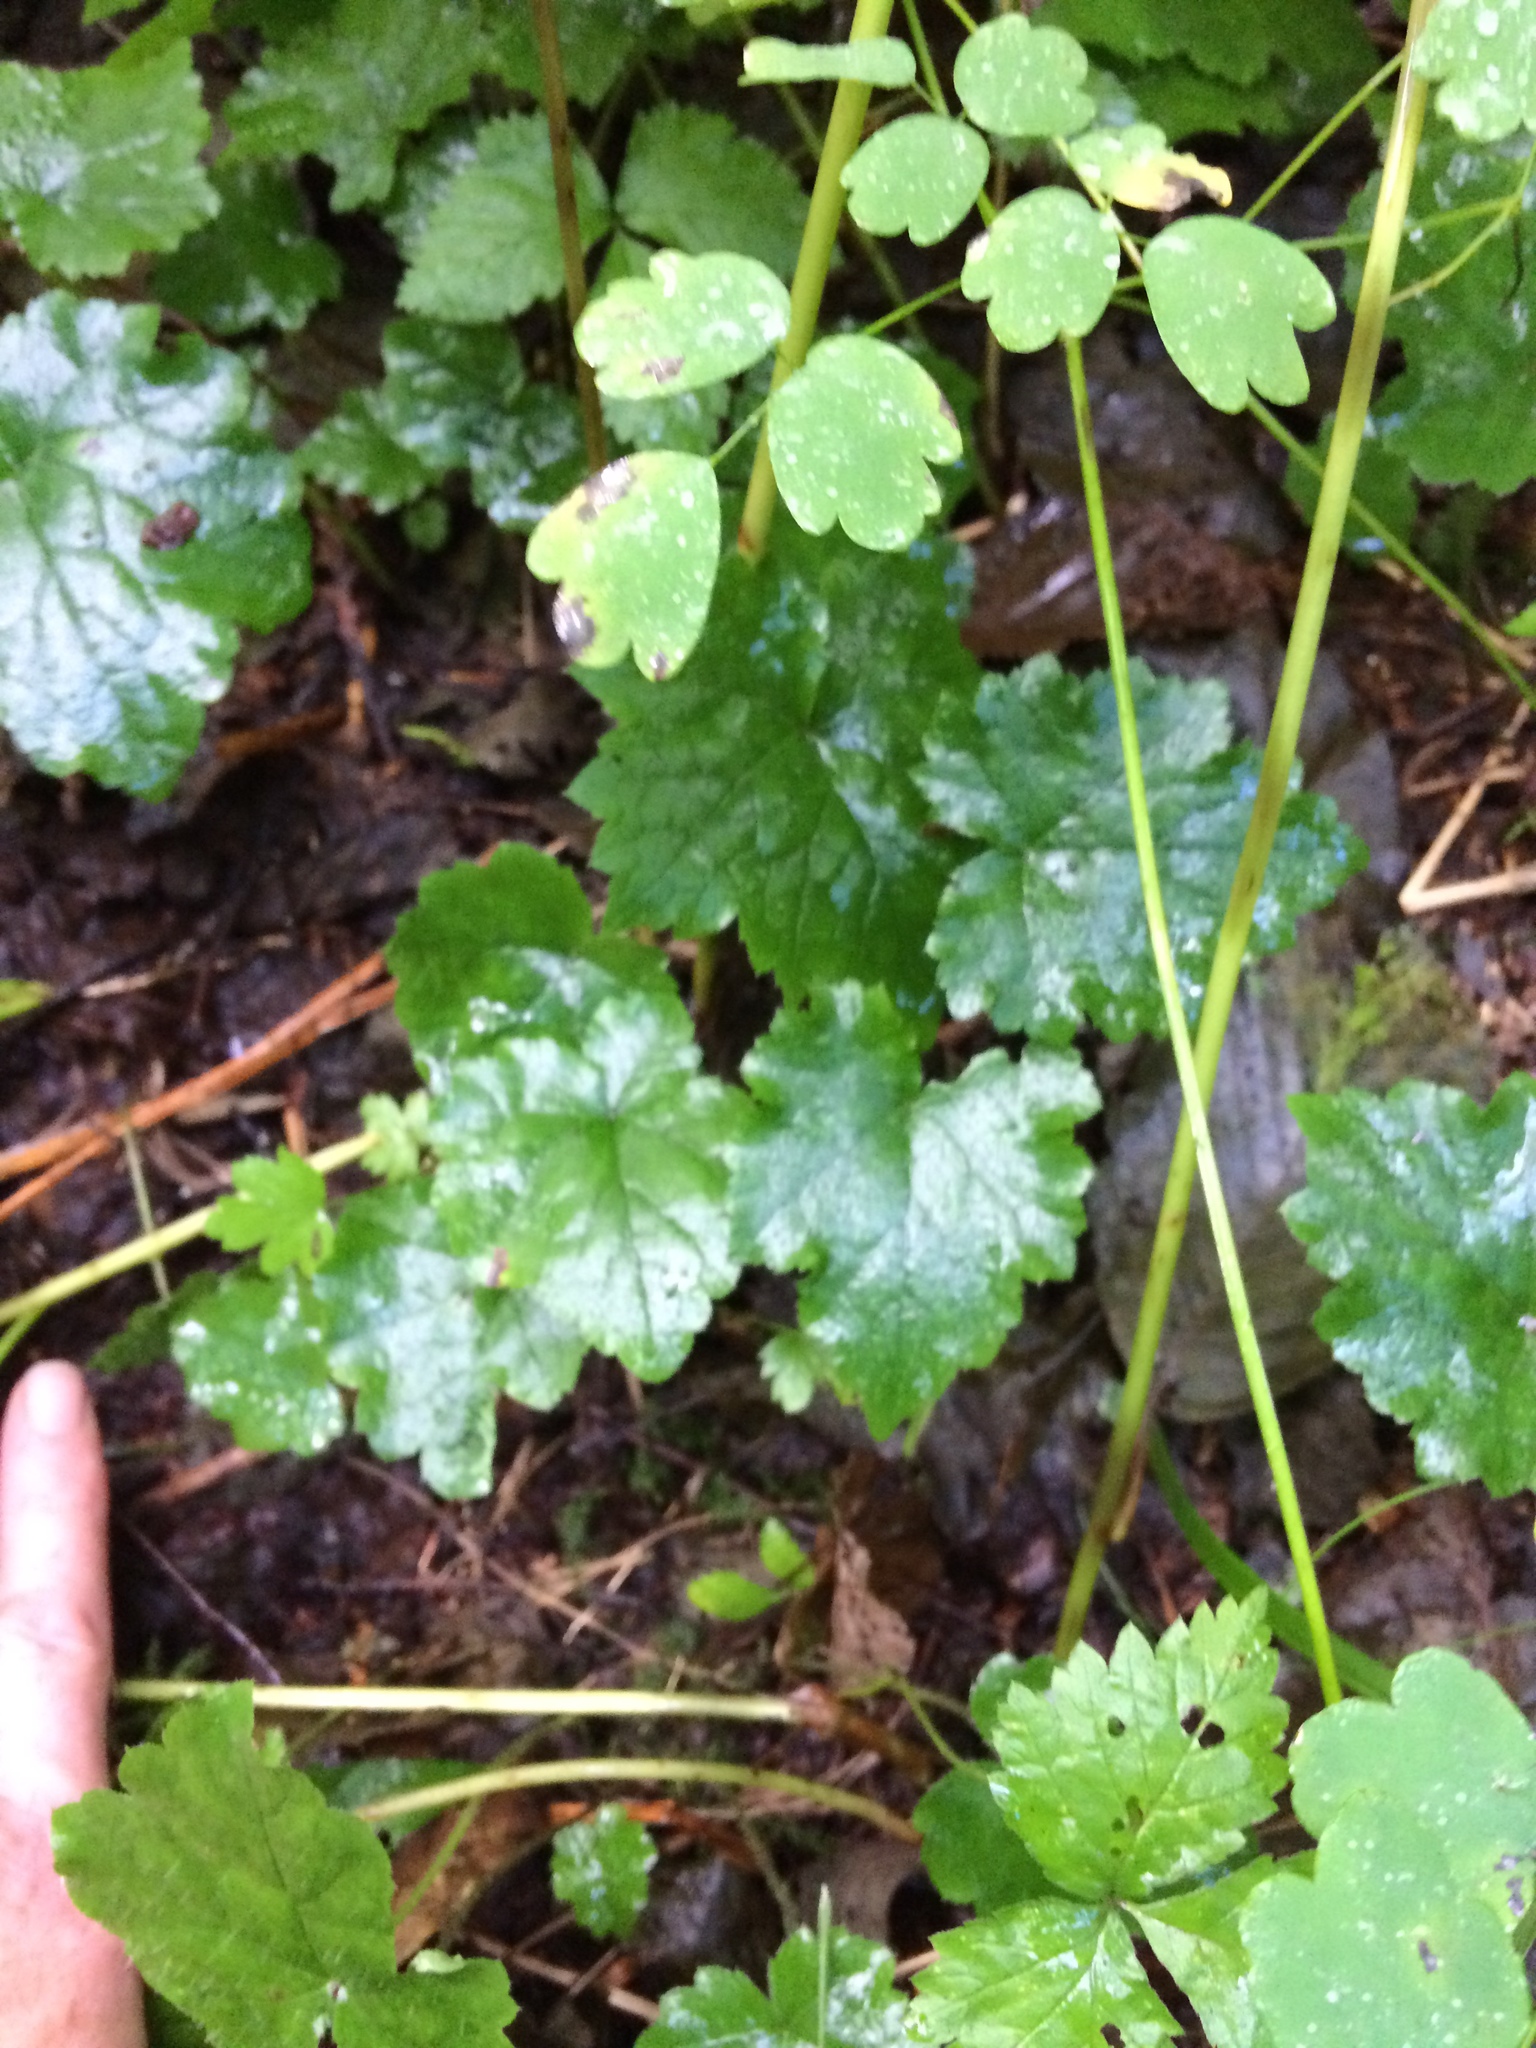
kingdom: Plantae
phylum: Tracheophyta
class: Magnoliopsida
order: Saxifragales
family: Saxifragaceae
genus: Tiarella
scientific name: Tiarella stolonifera
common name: Stoloniferous foamflower
